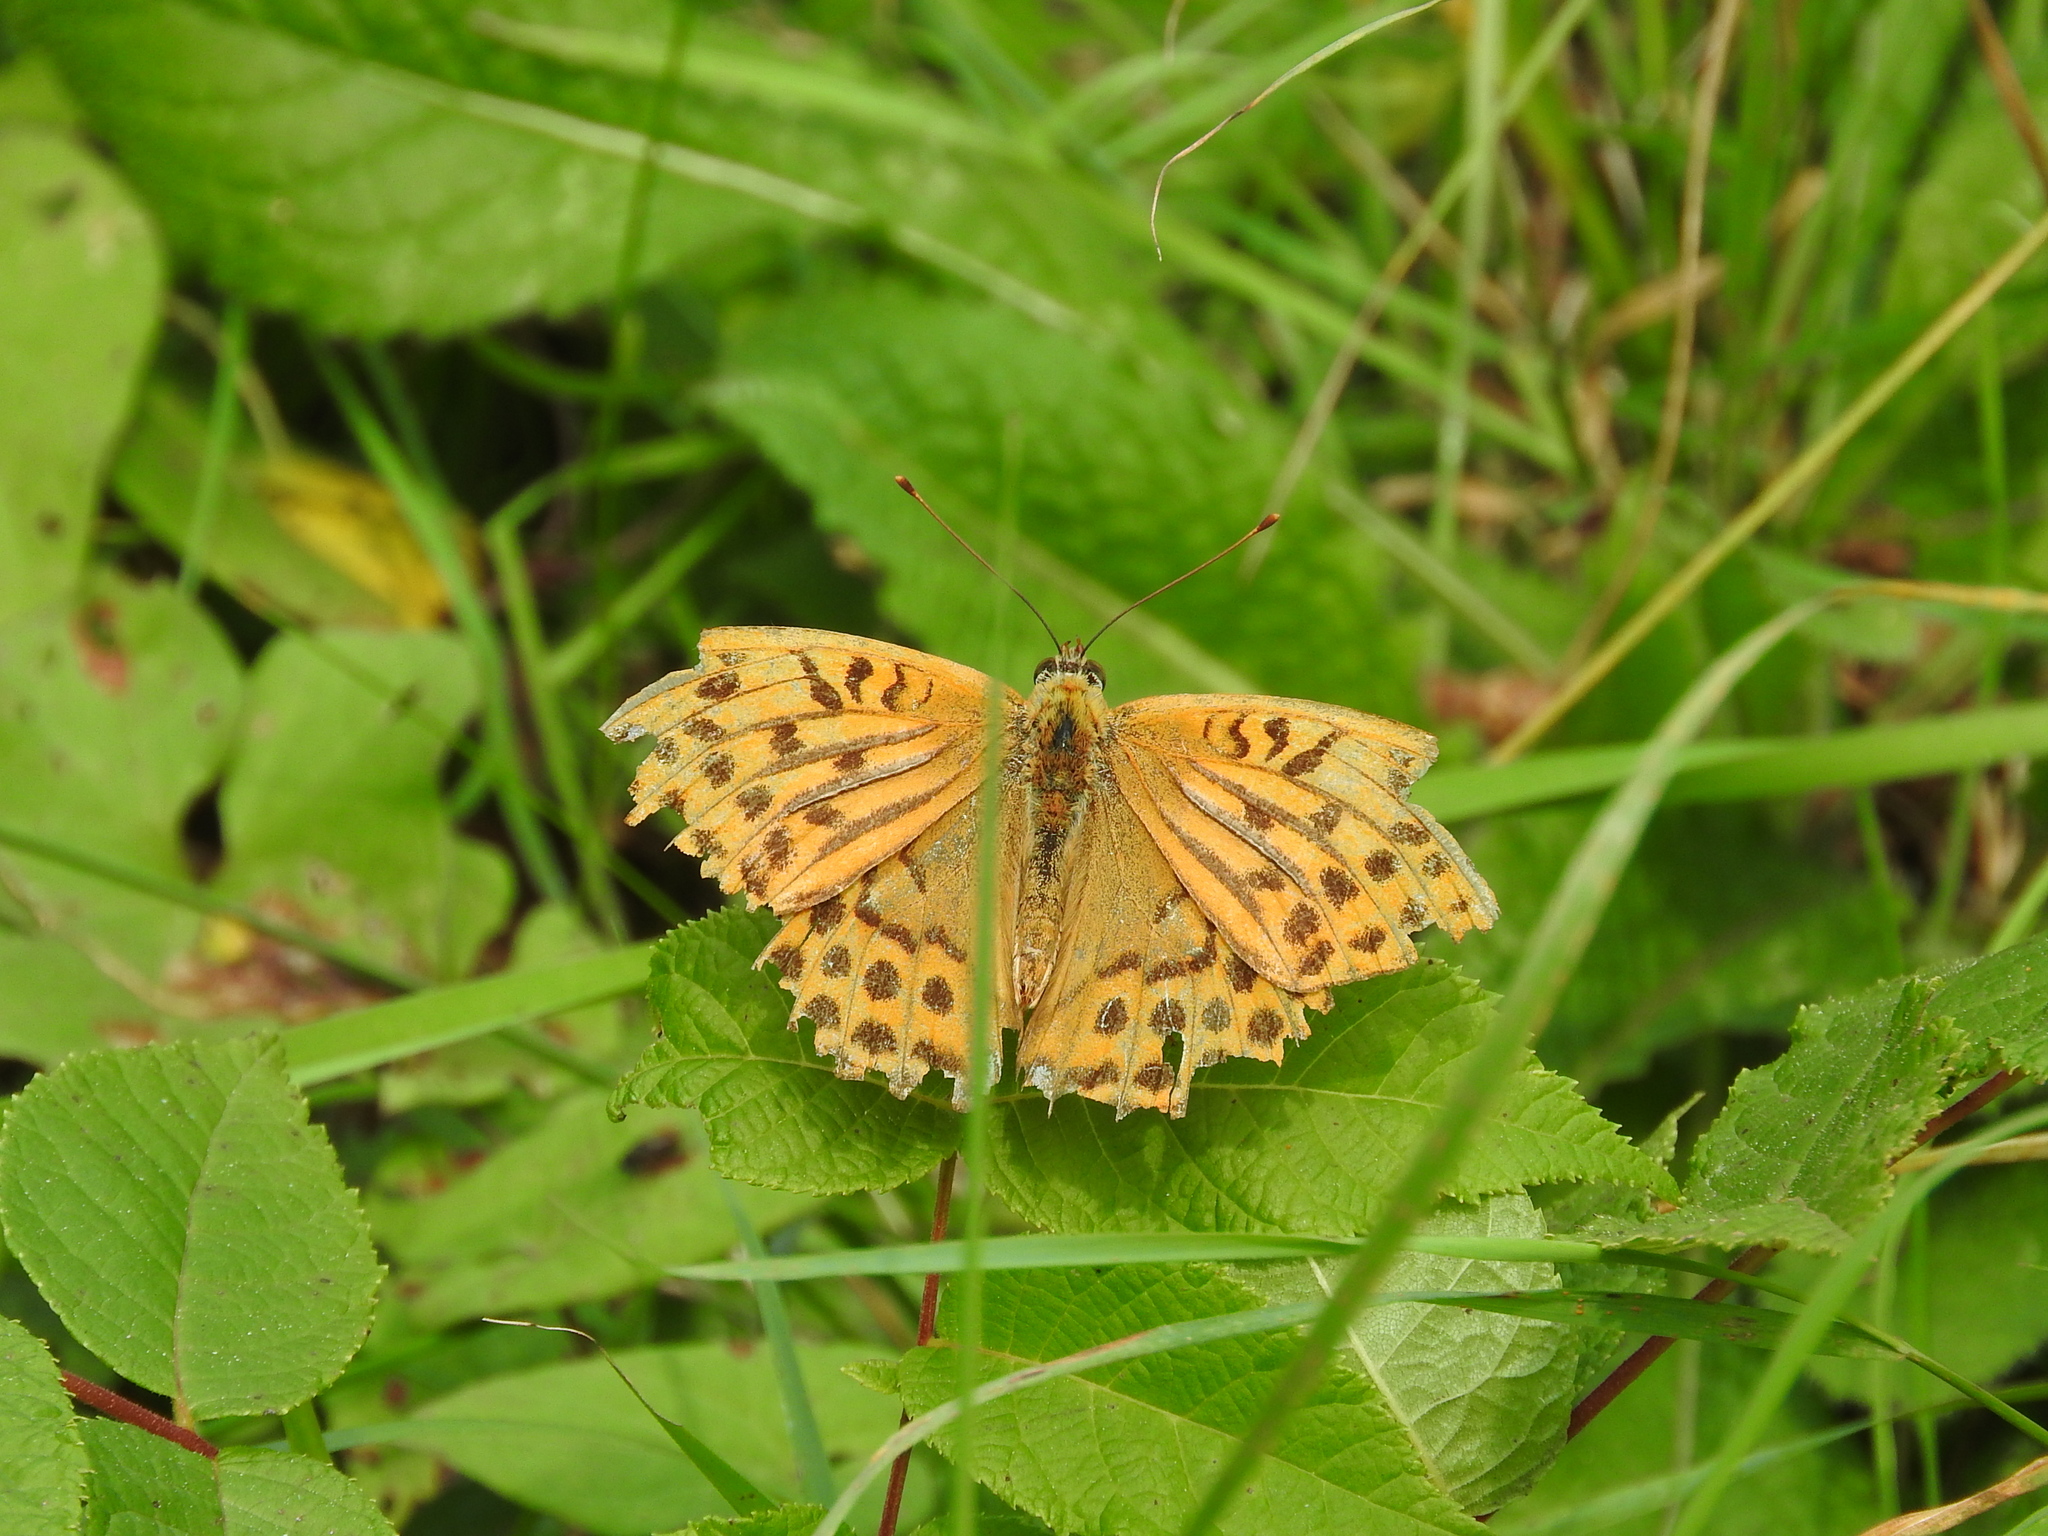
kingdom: Animalia
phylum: Arthropoda
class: Insecta
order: Lepidoptera
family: Nymphalidae
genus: Argynnis
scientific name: Argynnis paphia
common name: Silver-washed fritillary
